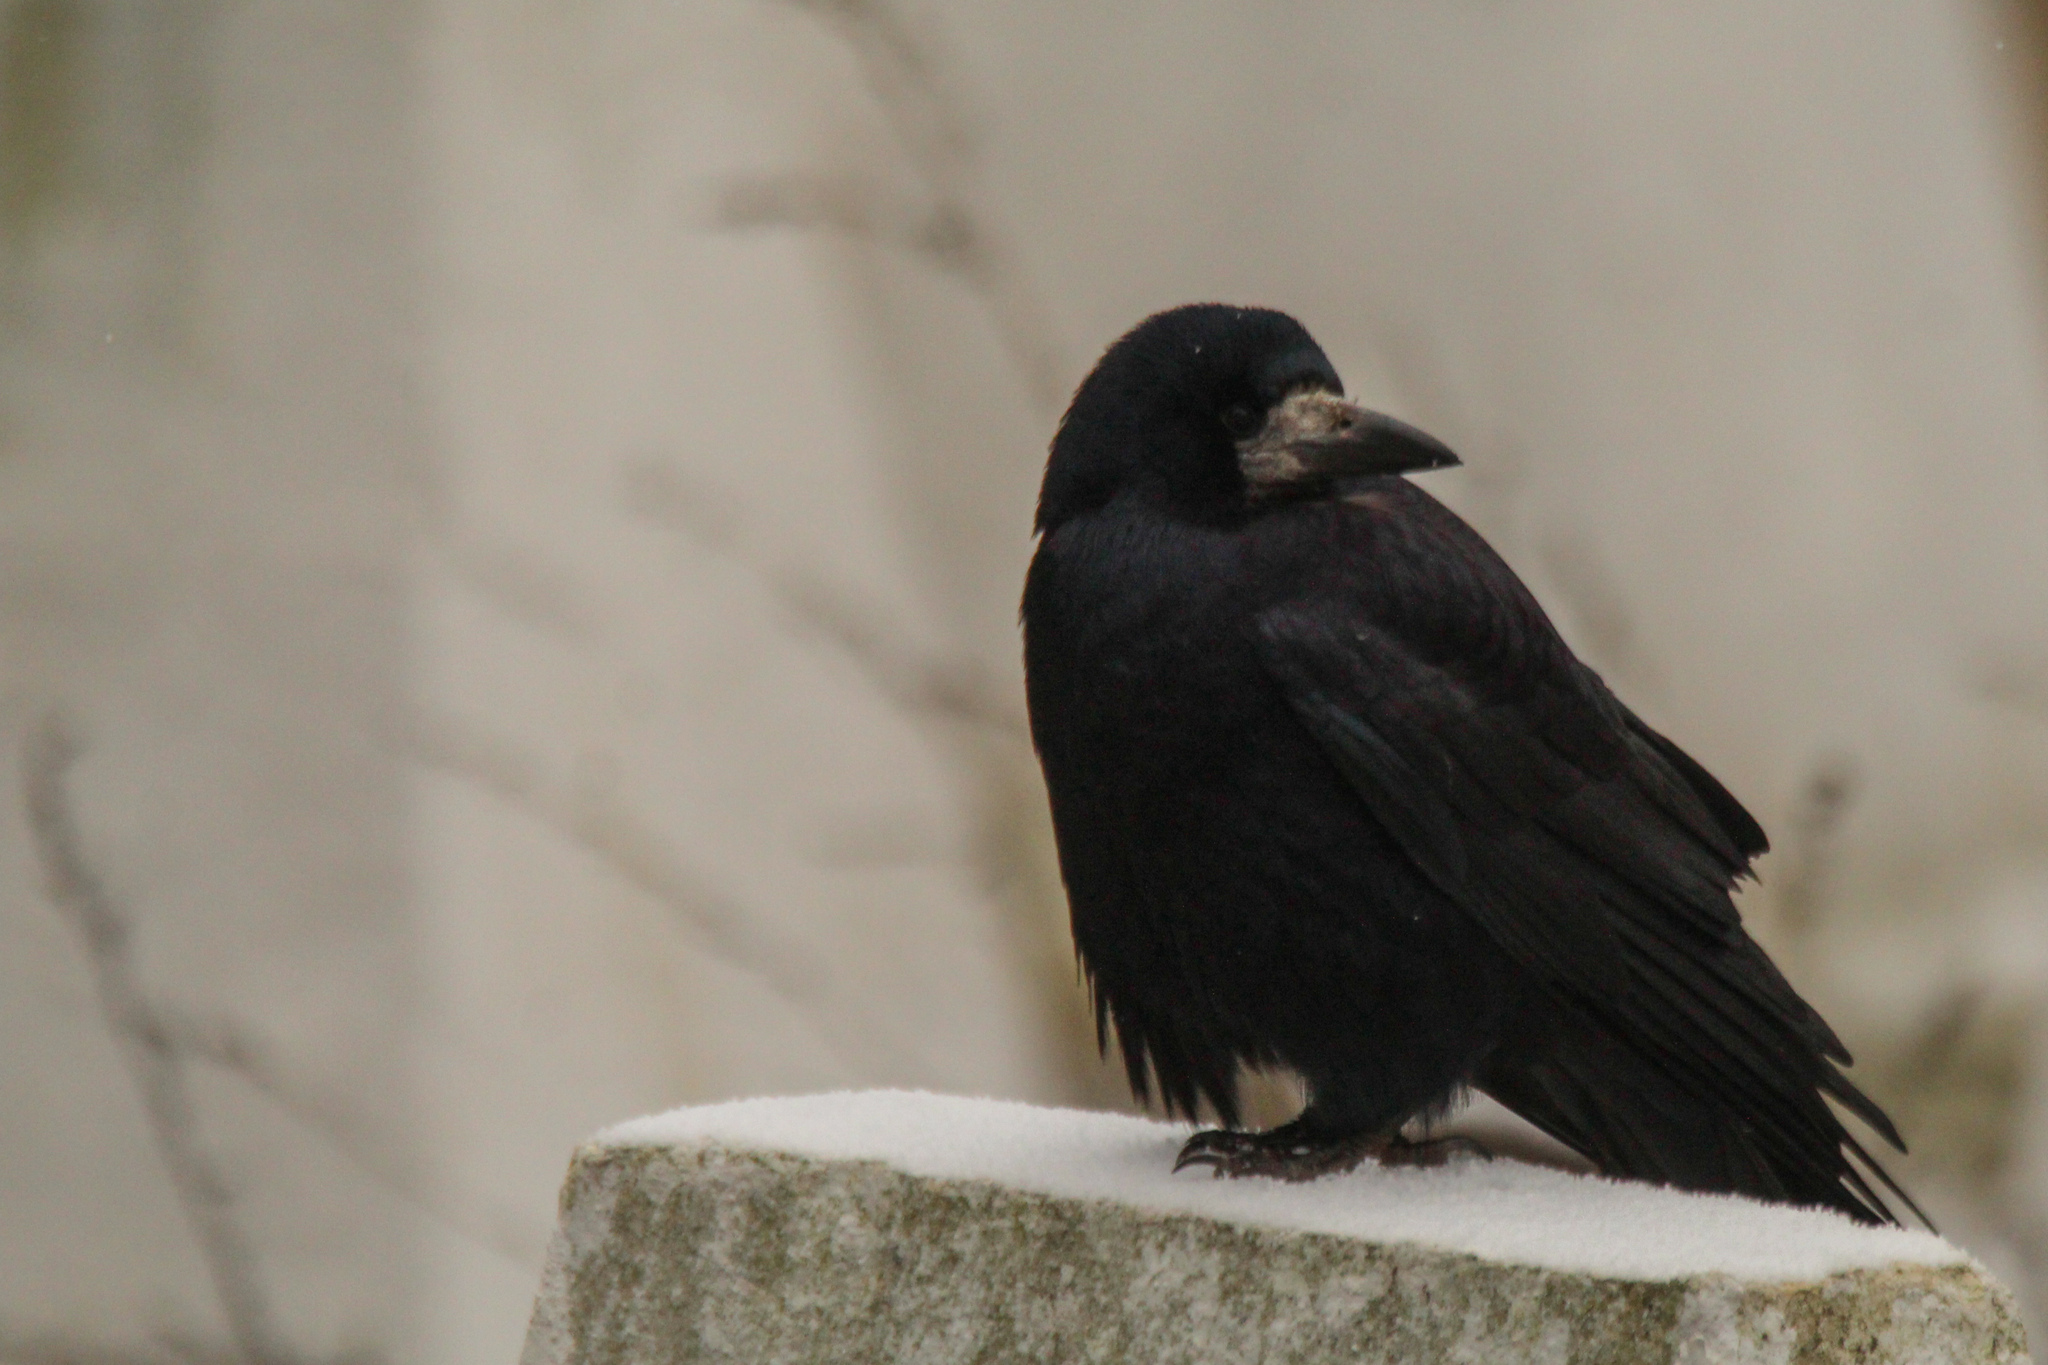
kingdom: Animalia
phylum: Chordata
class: Aves
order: Passeriformes
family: Corvidae
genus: Corvus
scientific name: Corvus frugilegus
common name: Rook
